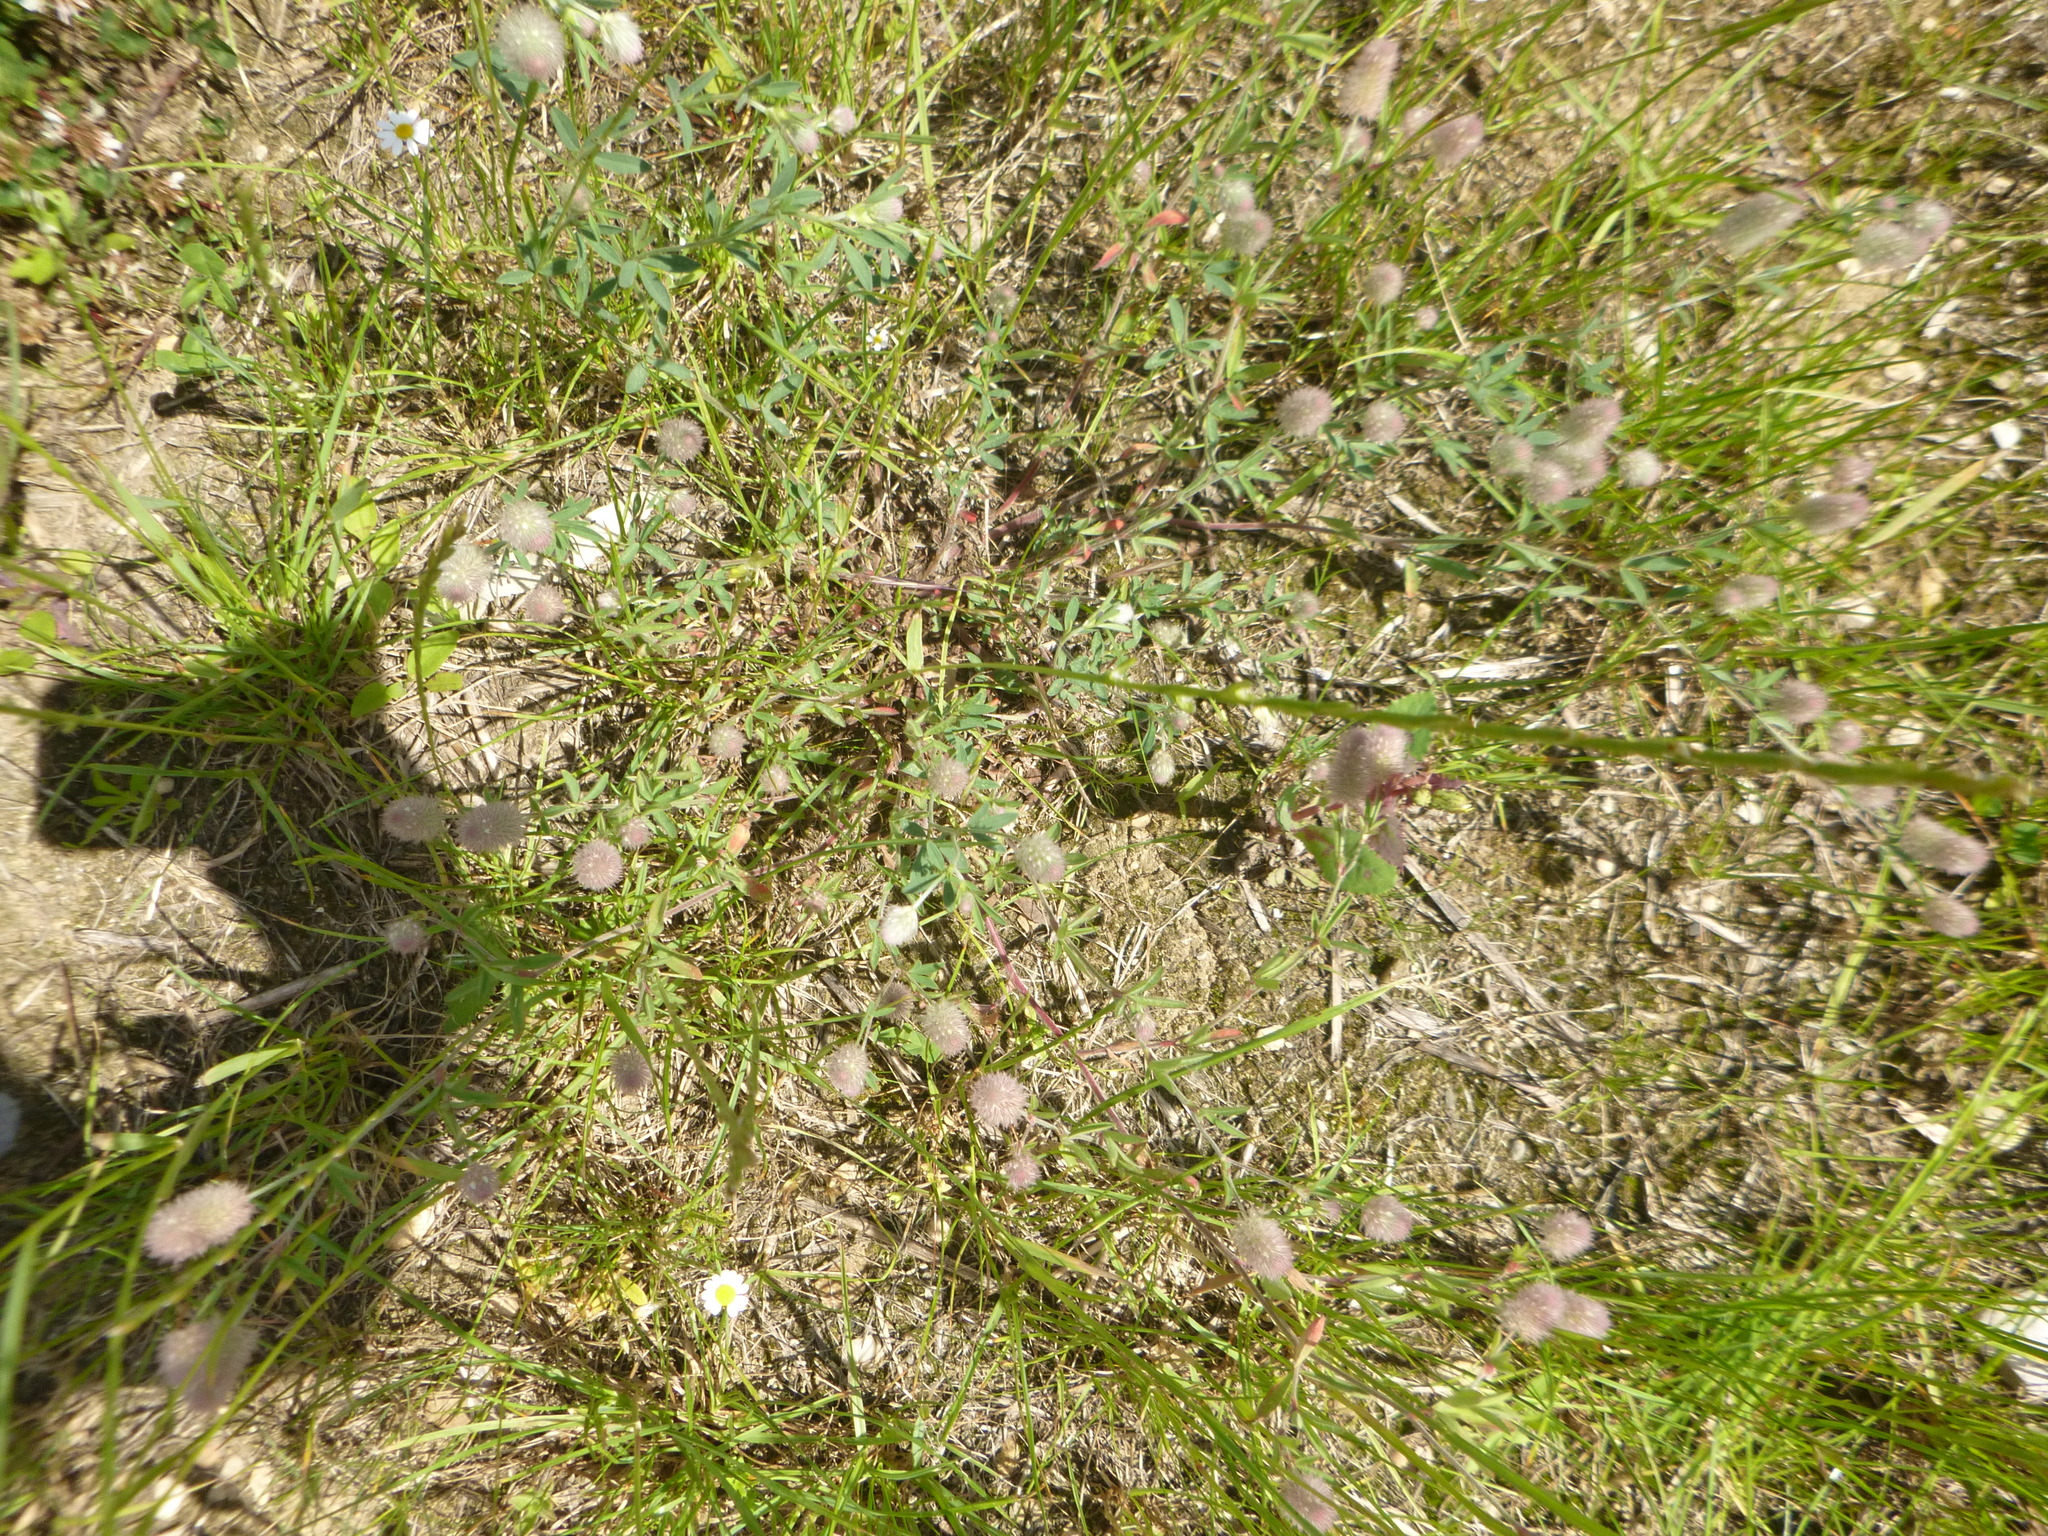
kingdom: Plantae
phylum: Tracheophyta
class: Magnoliopsida
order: Fabales
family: Fabaceae
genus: Trifolium
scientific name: Trifolium arvense
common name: Hare's-foot clover
